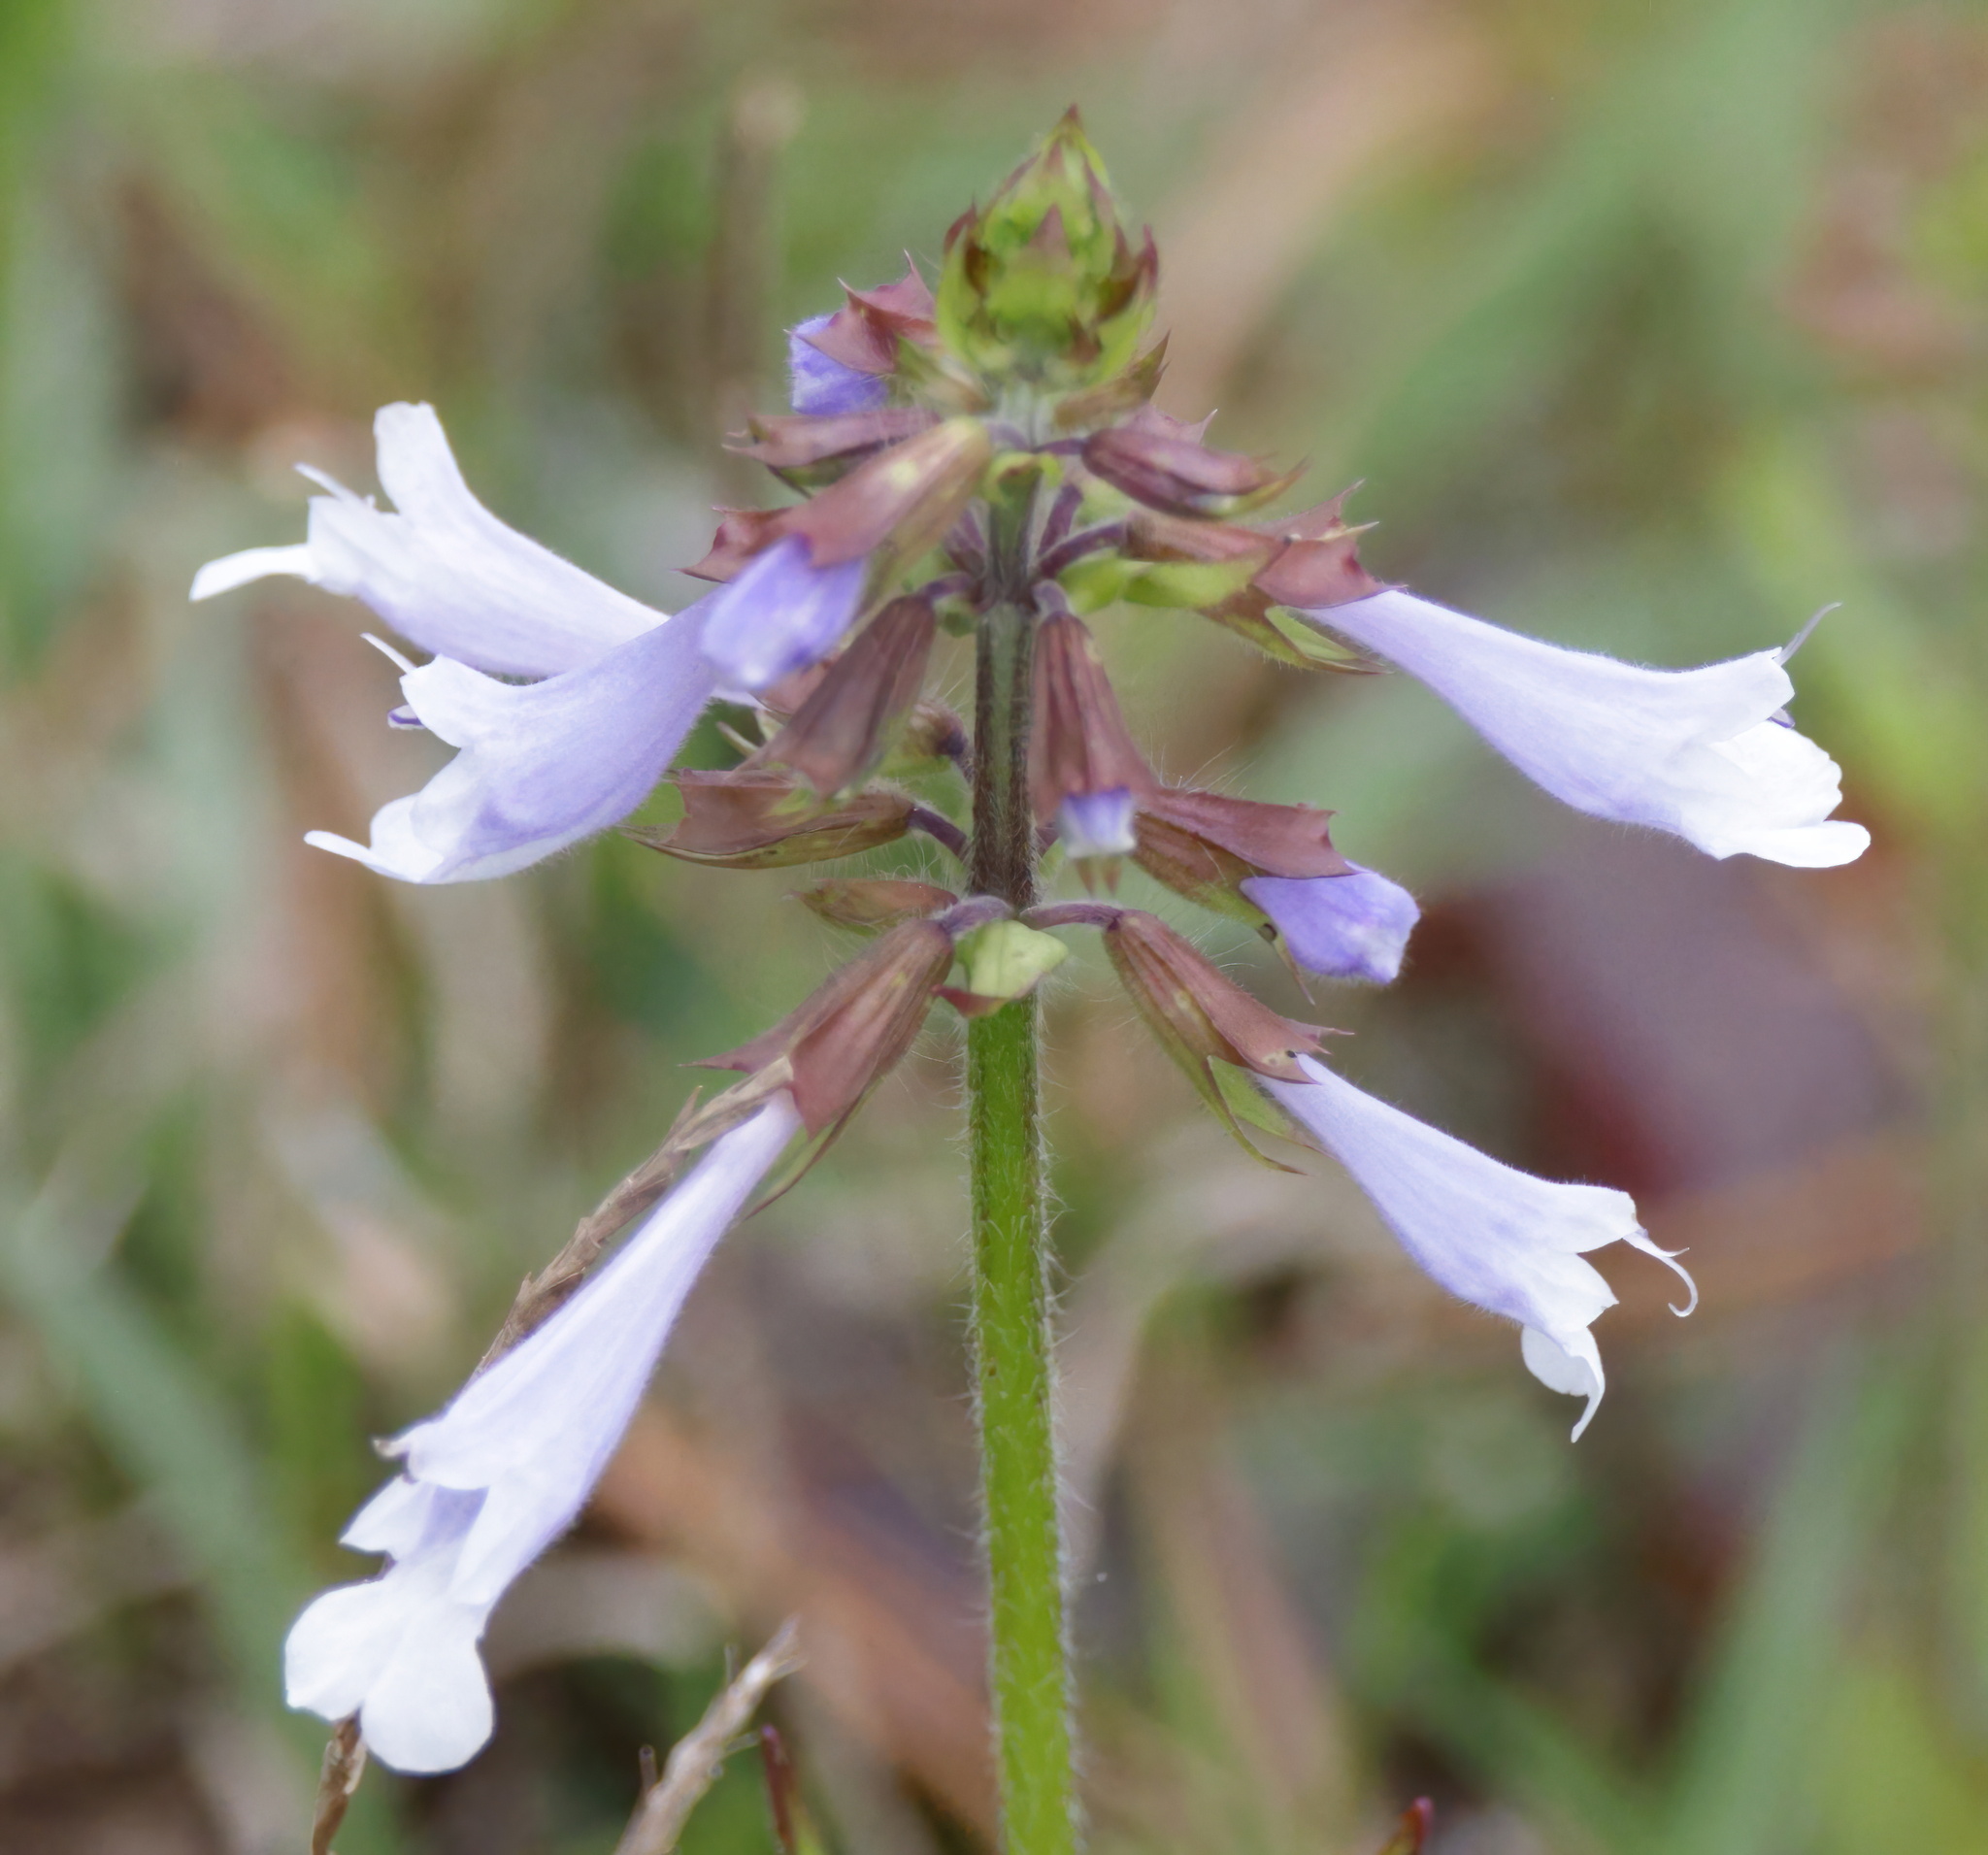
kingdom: Plantae
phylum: Tracheophyta
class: Magnoliopsida
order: Lamiales
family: Lamiaceae
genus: Salvia
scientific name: Salvia lyrata
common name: Cancerweed
